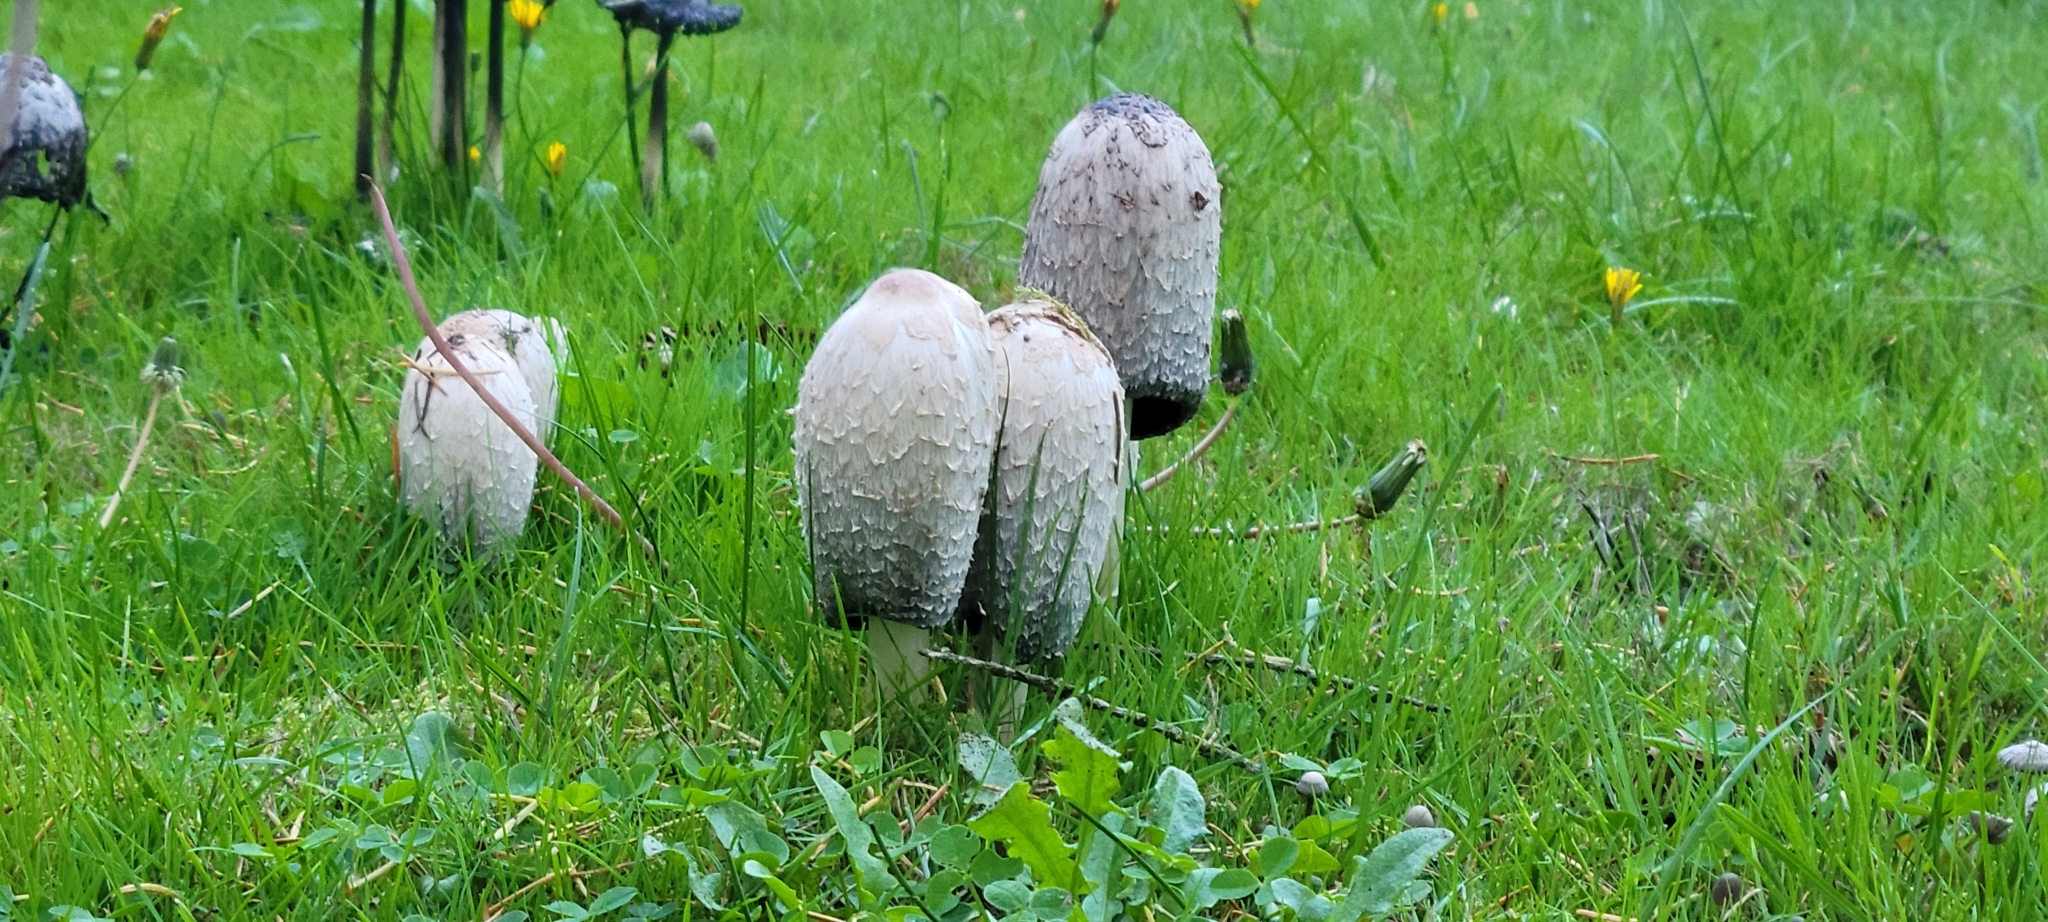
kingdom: Fungi
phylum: Basidiomycota
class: Agaricomycetes
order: Agaricales
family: Agaricaceae
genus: Coprinus
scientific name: Coprinus comatus
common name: Lawyer's wig
